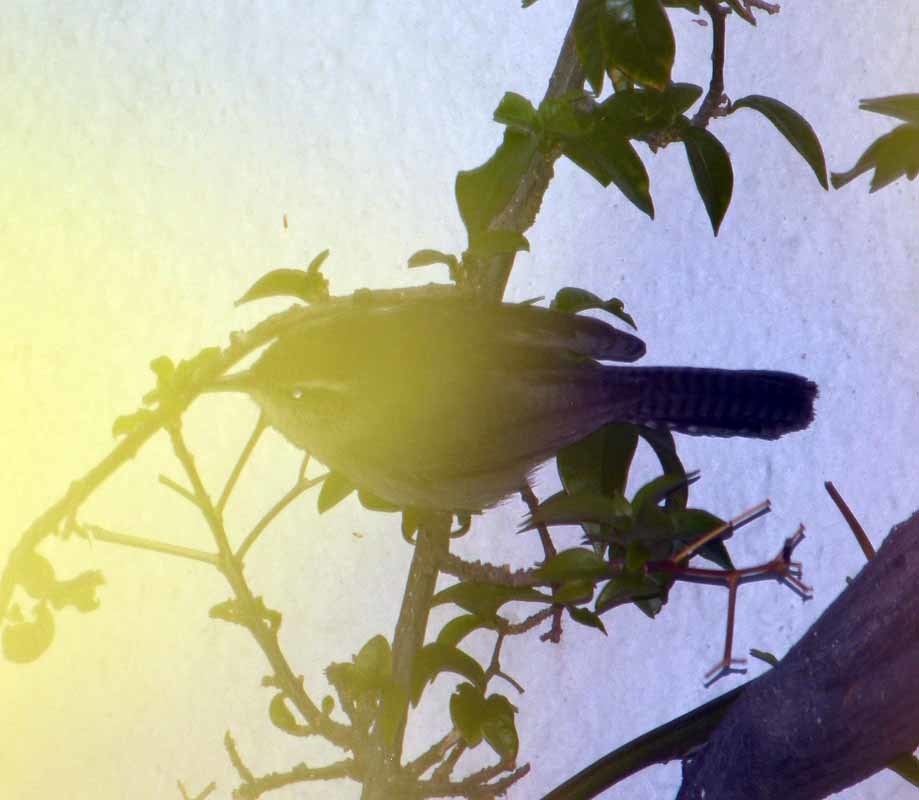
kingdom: Animalia
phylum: Chordata
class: Aves
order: Passeriformes
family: Troglodytidae
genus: Thryomanes
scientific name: Thryomanes bewickii
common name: Bewick's wren
